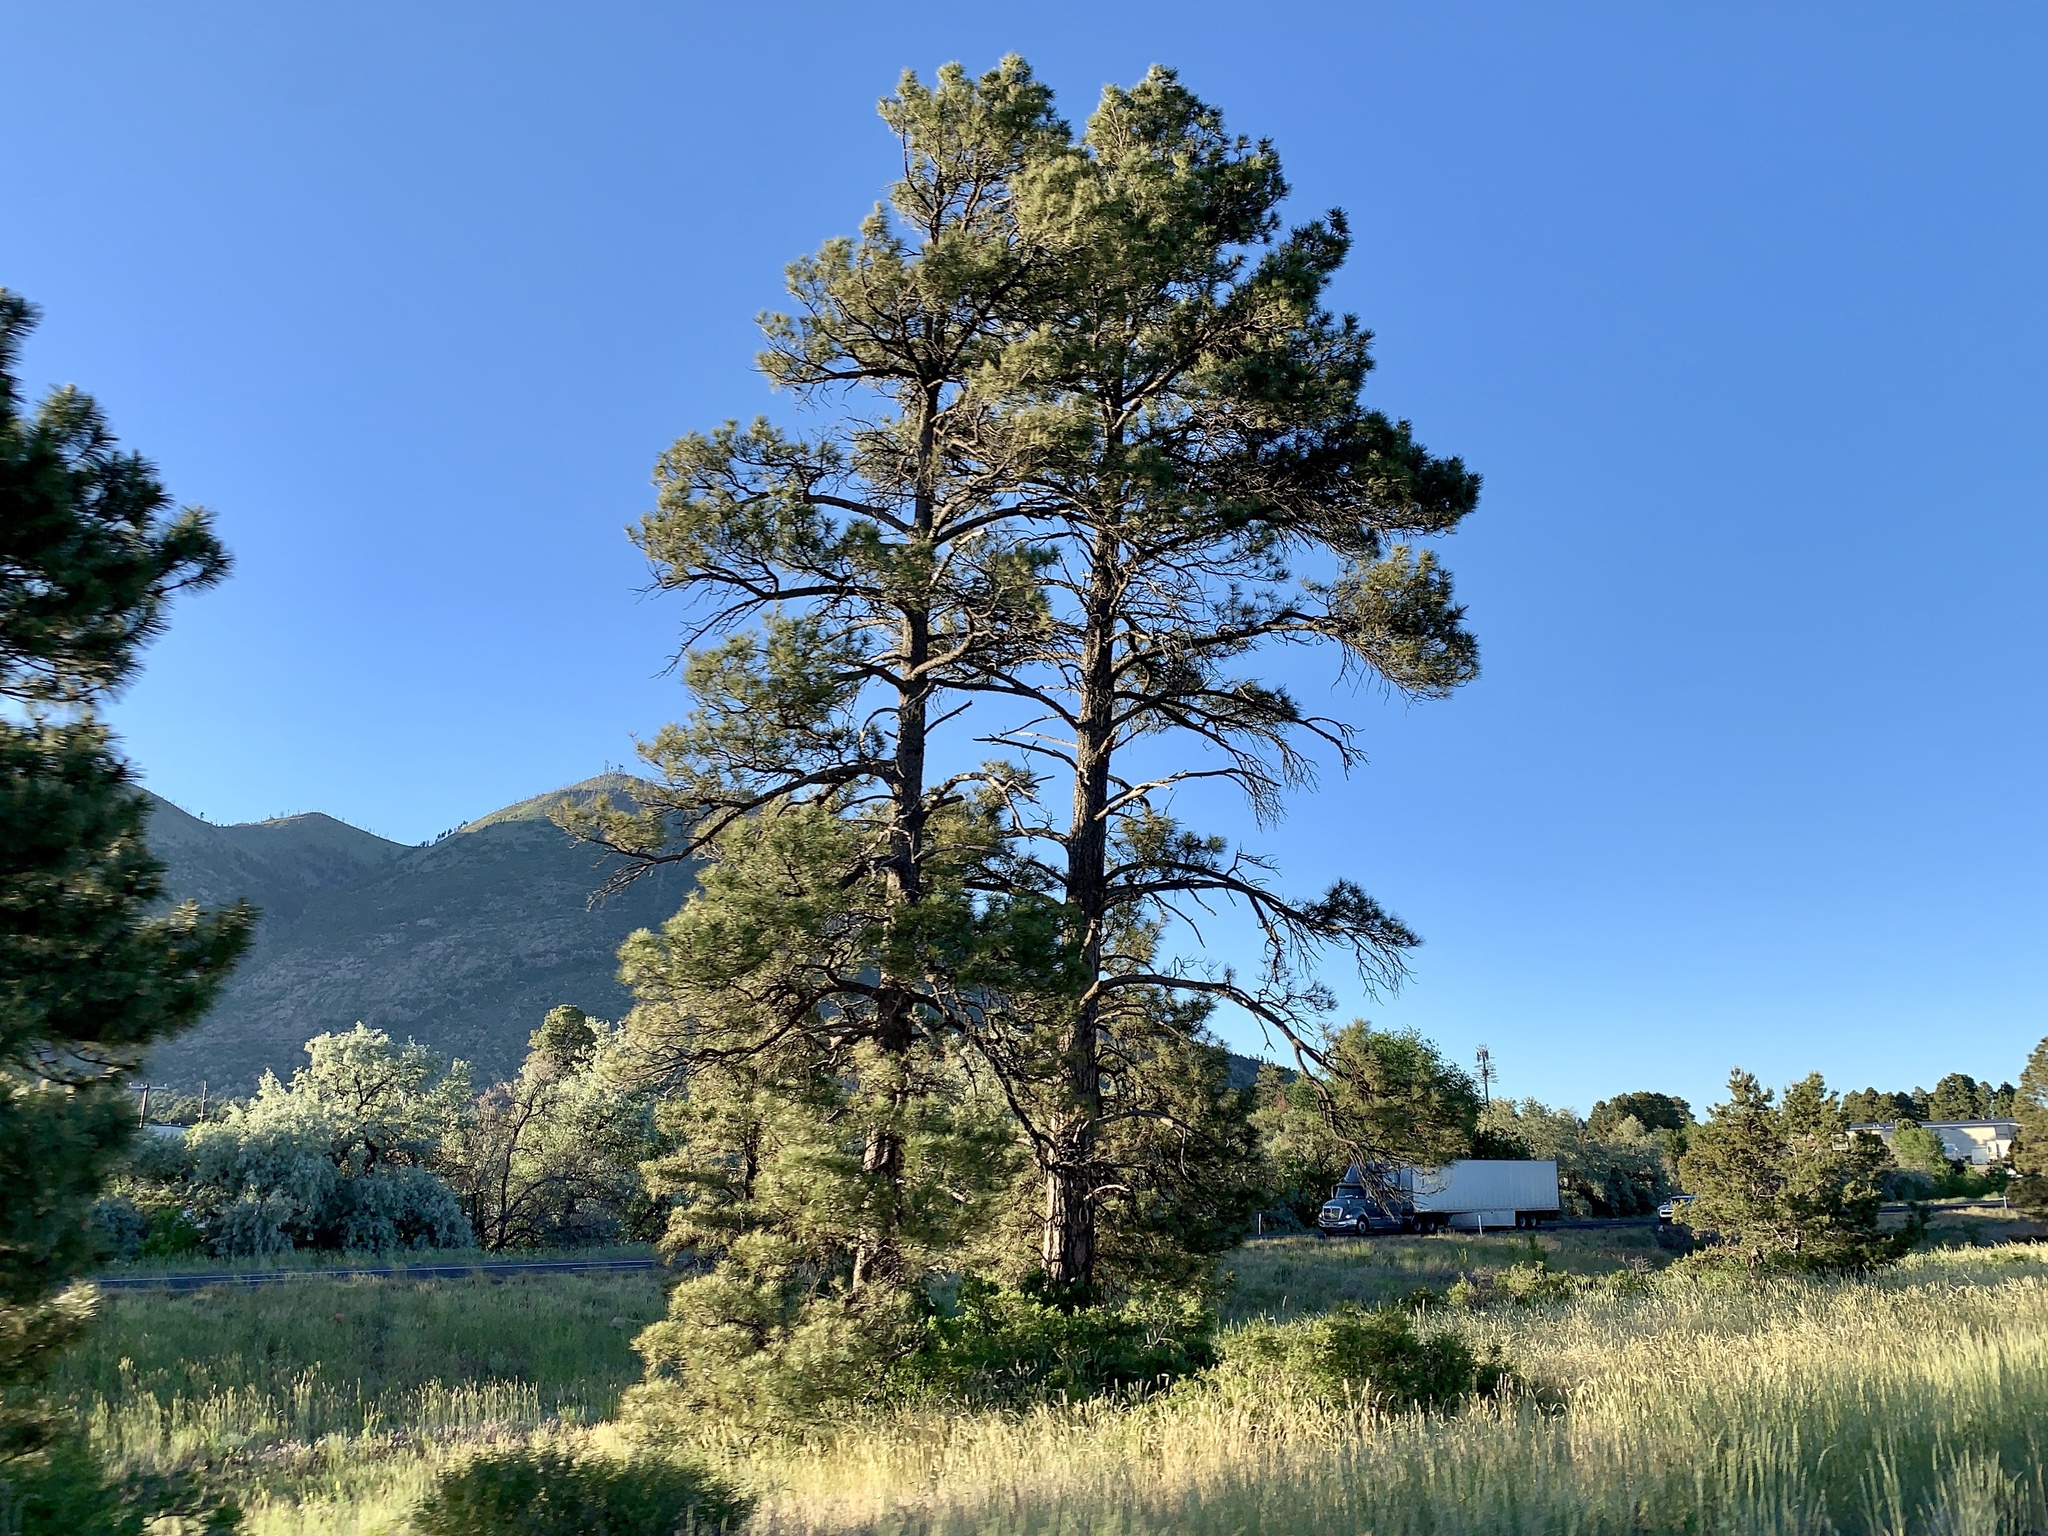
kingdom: Plantae
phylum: Tracheophyta
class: Pinopsida
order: Pinales
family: Pinaceae
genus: Pinus
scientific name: Pinus ponderosa
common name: Western yellow-pine
